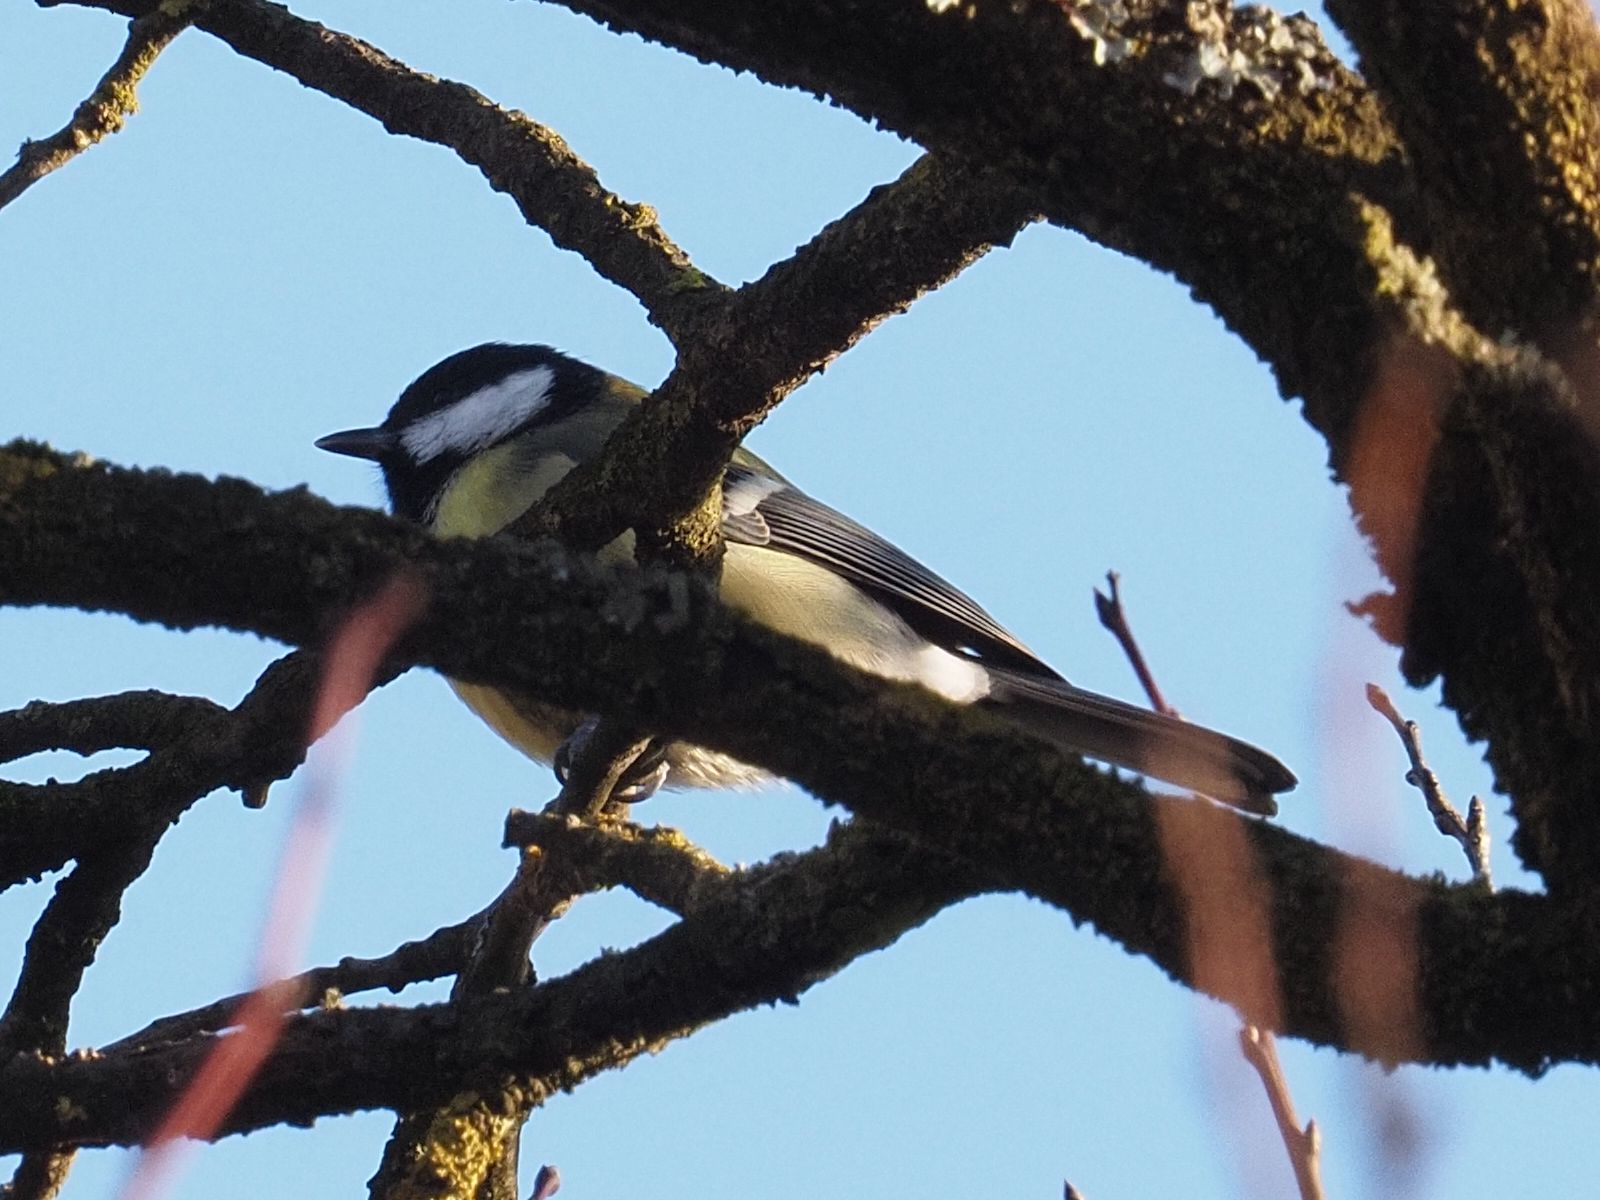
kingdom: Animalia
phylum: Chordata
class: Aves
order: Passeriformes
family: Paridae
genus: Parus
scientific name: Parus major
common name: Great tit
